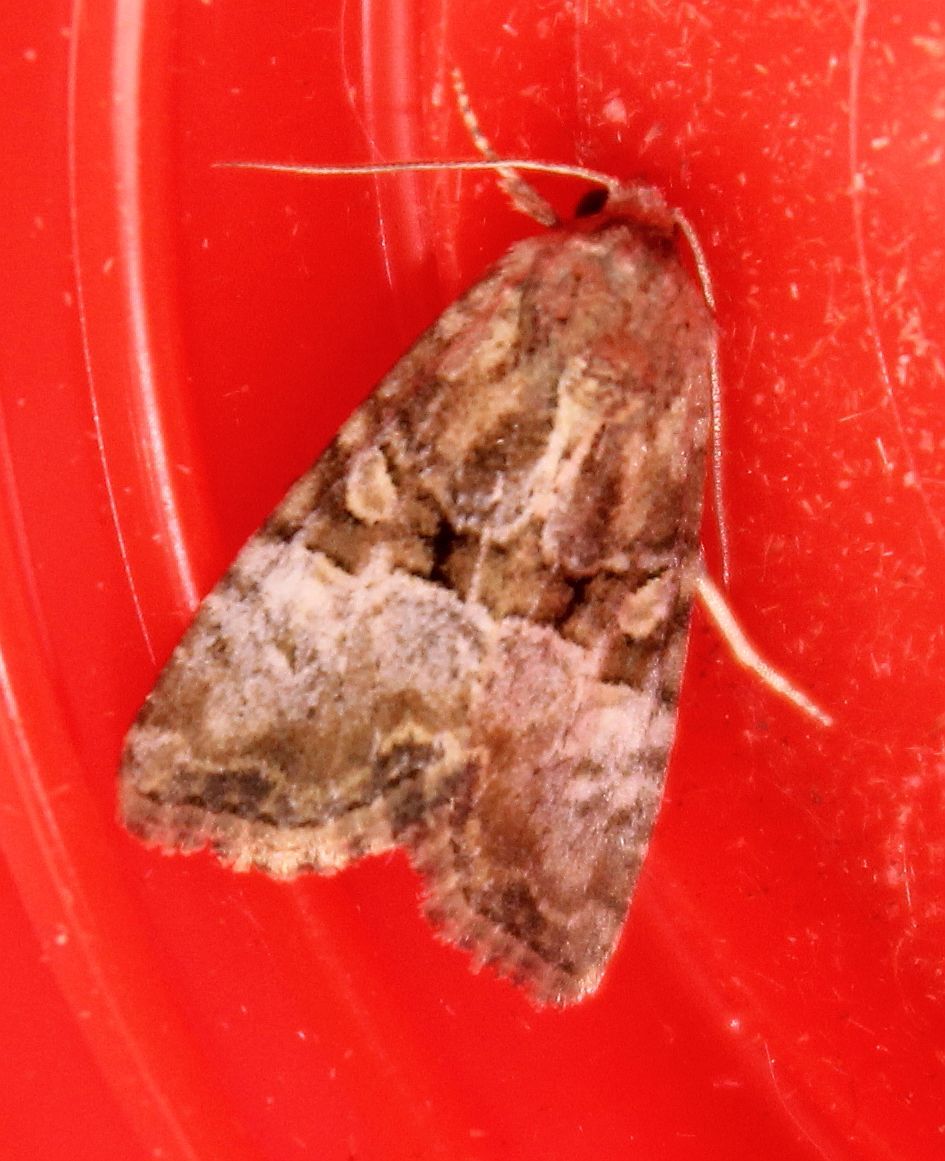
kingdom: Animalia
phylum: Arthropoda
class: Insecta
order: Lepidoptera
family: Noctuidae
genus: Mesoligia
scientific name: Mesoligia furuncula
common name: Cloaked minor
